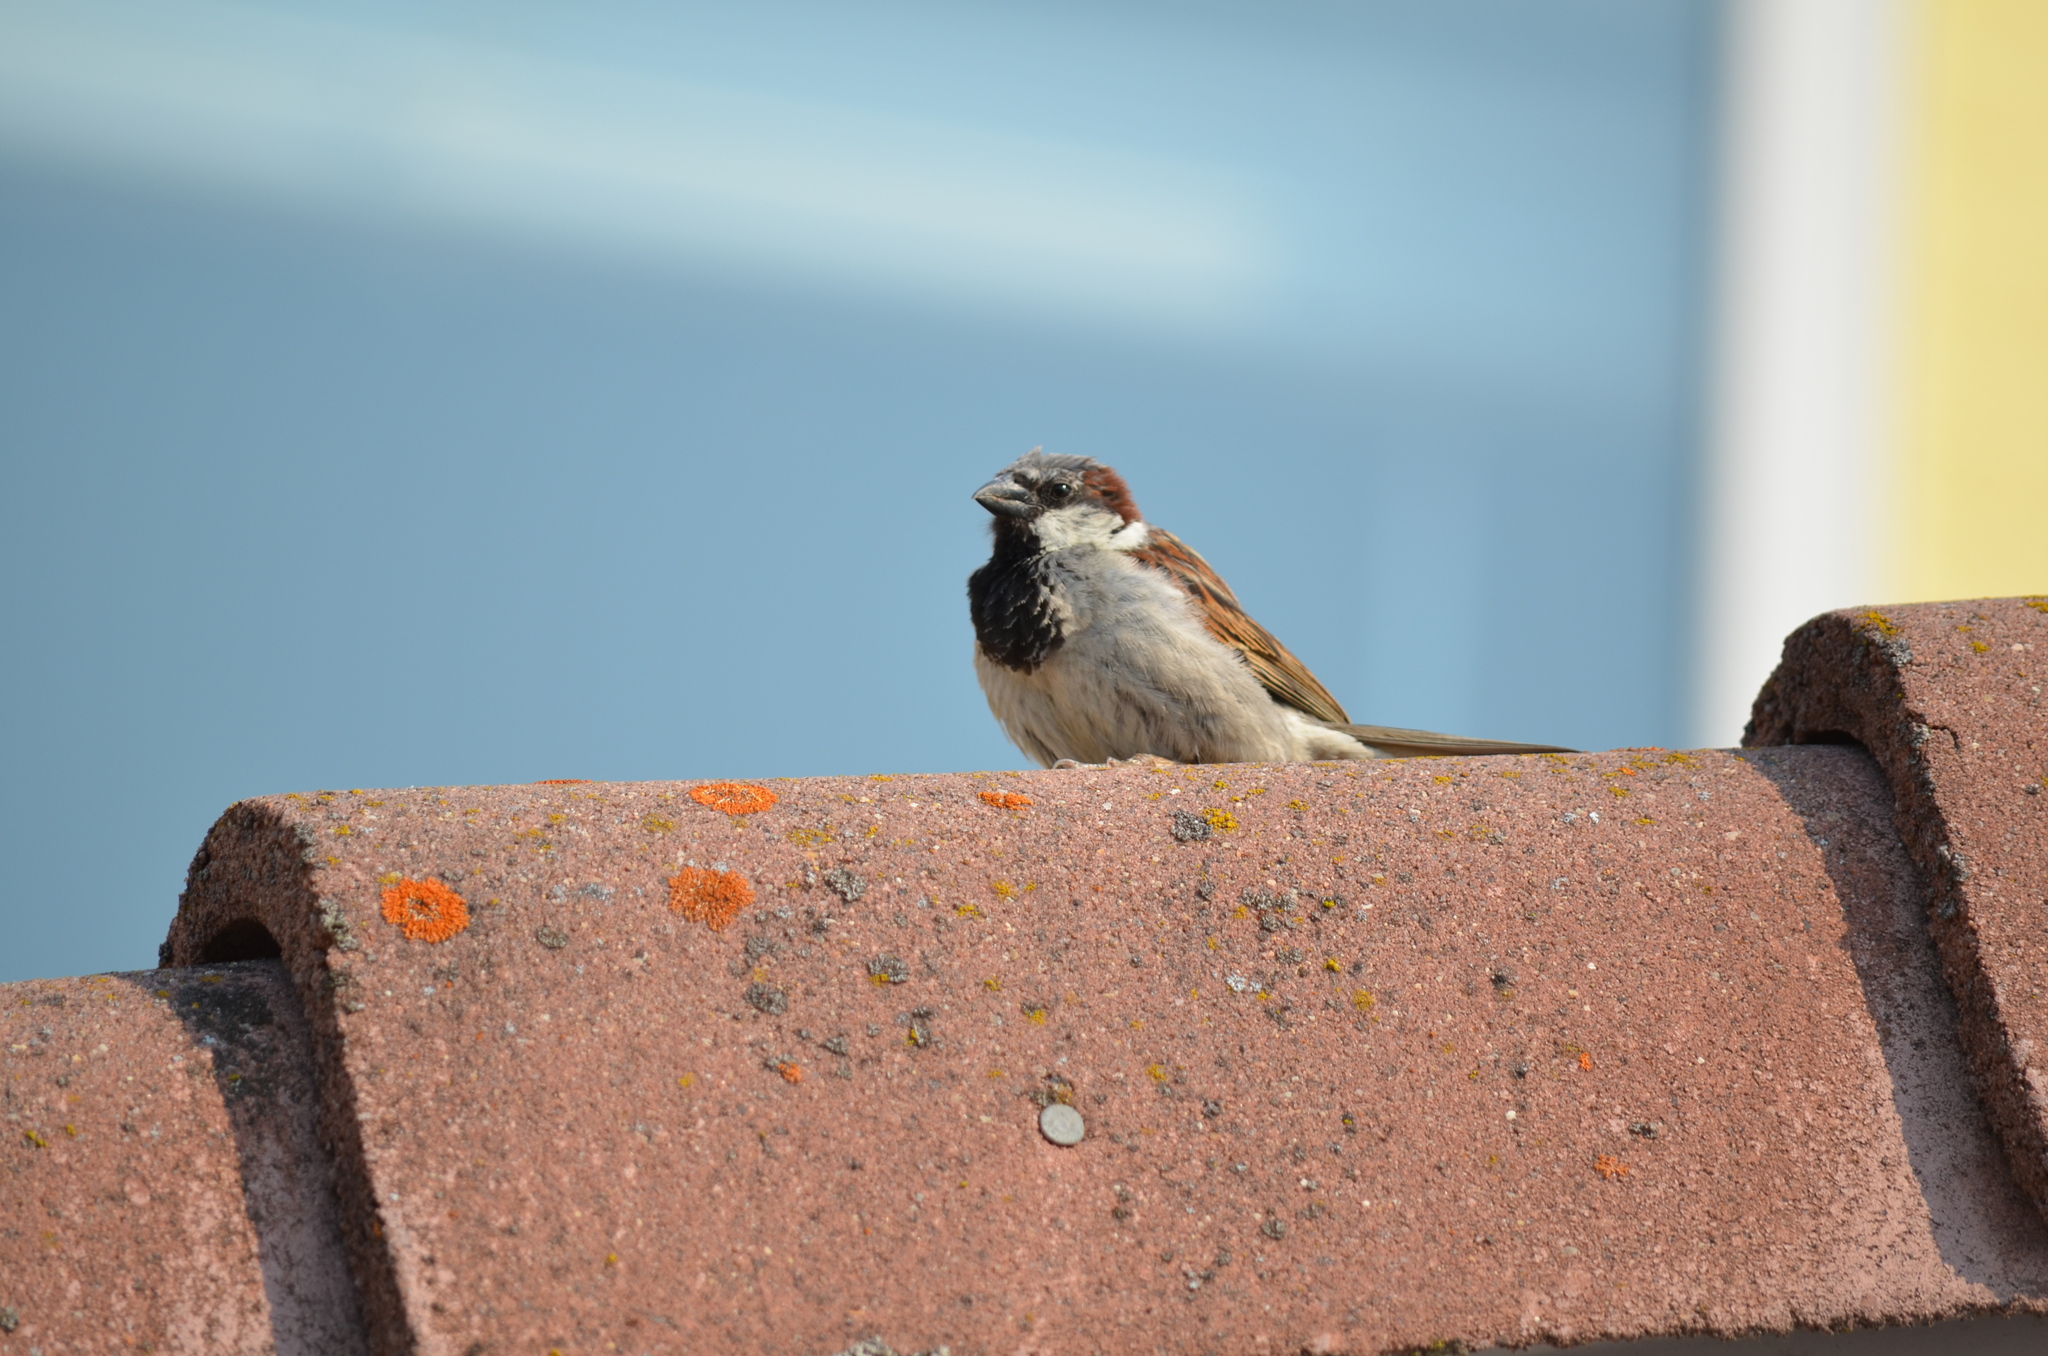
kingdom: Animalia
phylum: Chordata
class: Aves
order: Passeriformes
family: Passeridae
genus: Passer
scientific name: Passer domesticus
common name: House sparrow
